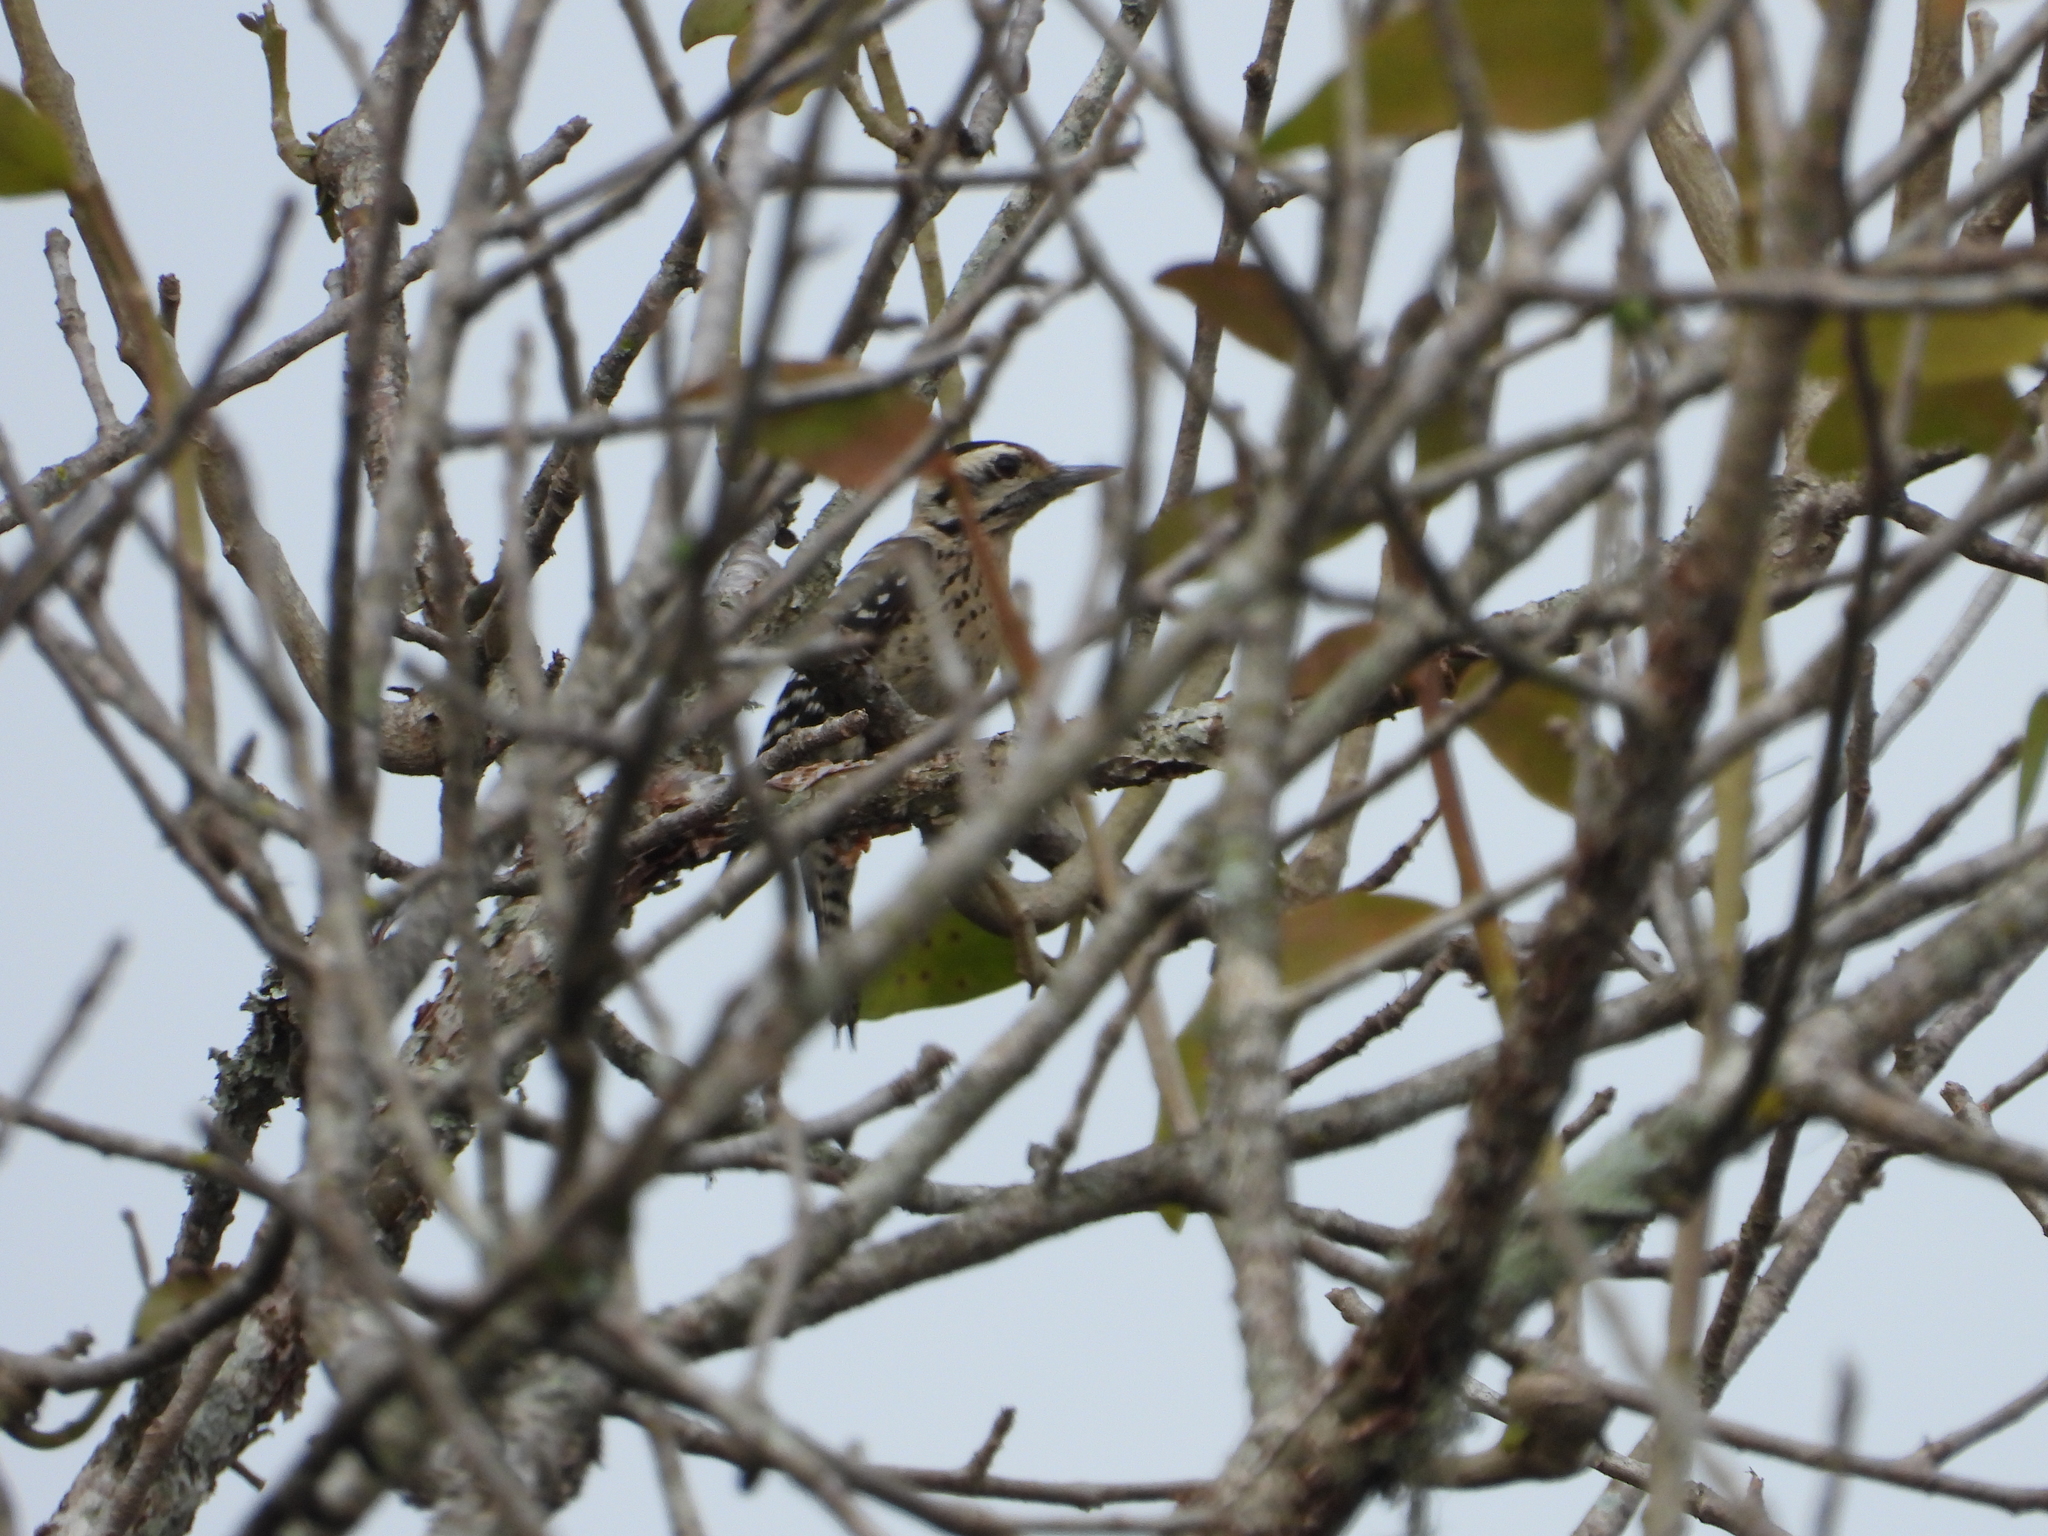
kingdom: Animalia
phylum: Chordata
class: Aves
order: Piciformes
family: Picidae
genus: Dryobates
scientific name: Dryobates scalaris
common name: Ladder-backed woodpecker
